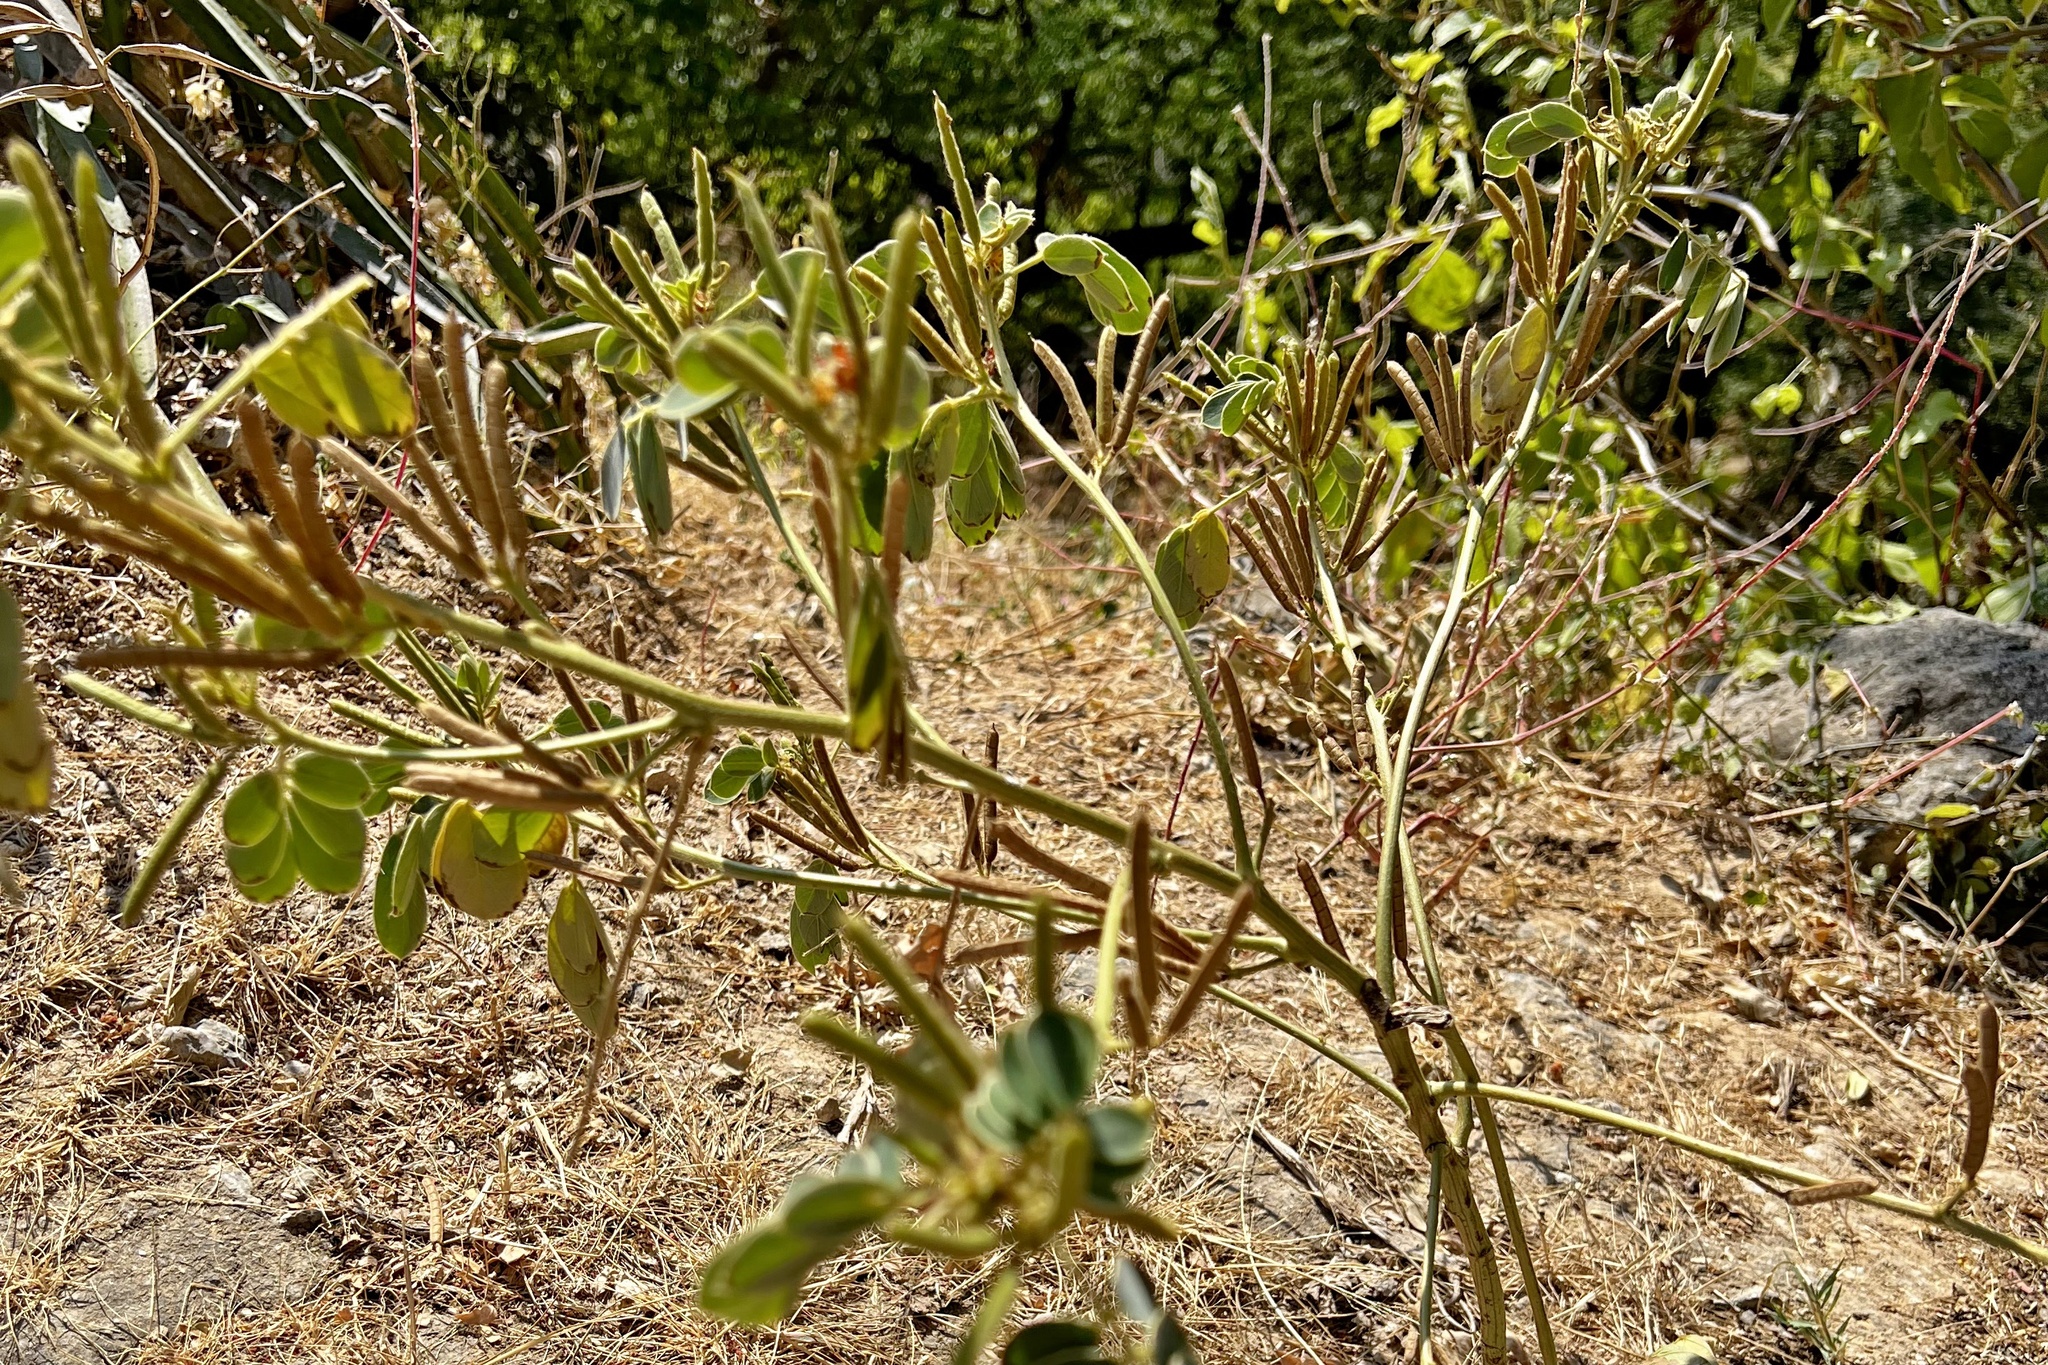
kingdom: Plantae
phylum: Tracheophyta
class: Magnoliopsida
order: Fabales
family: Fabaceae
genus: Senna
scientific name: Senna uniflora
